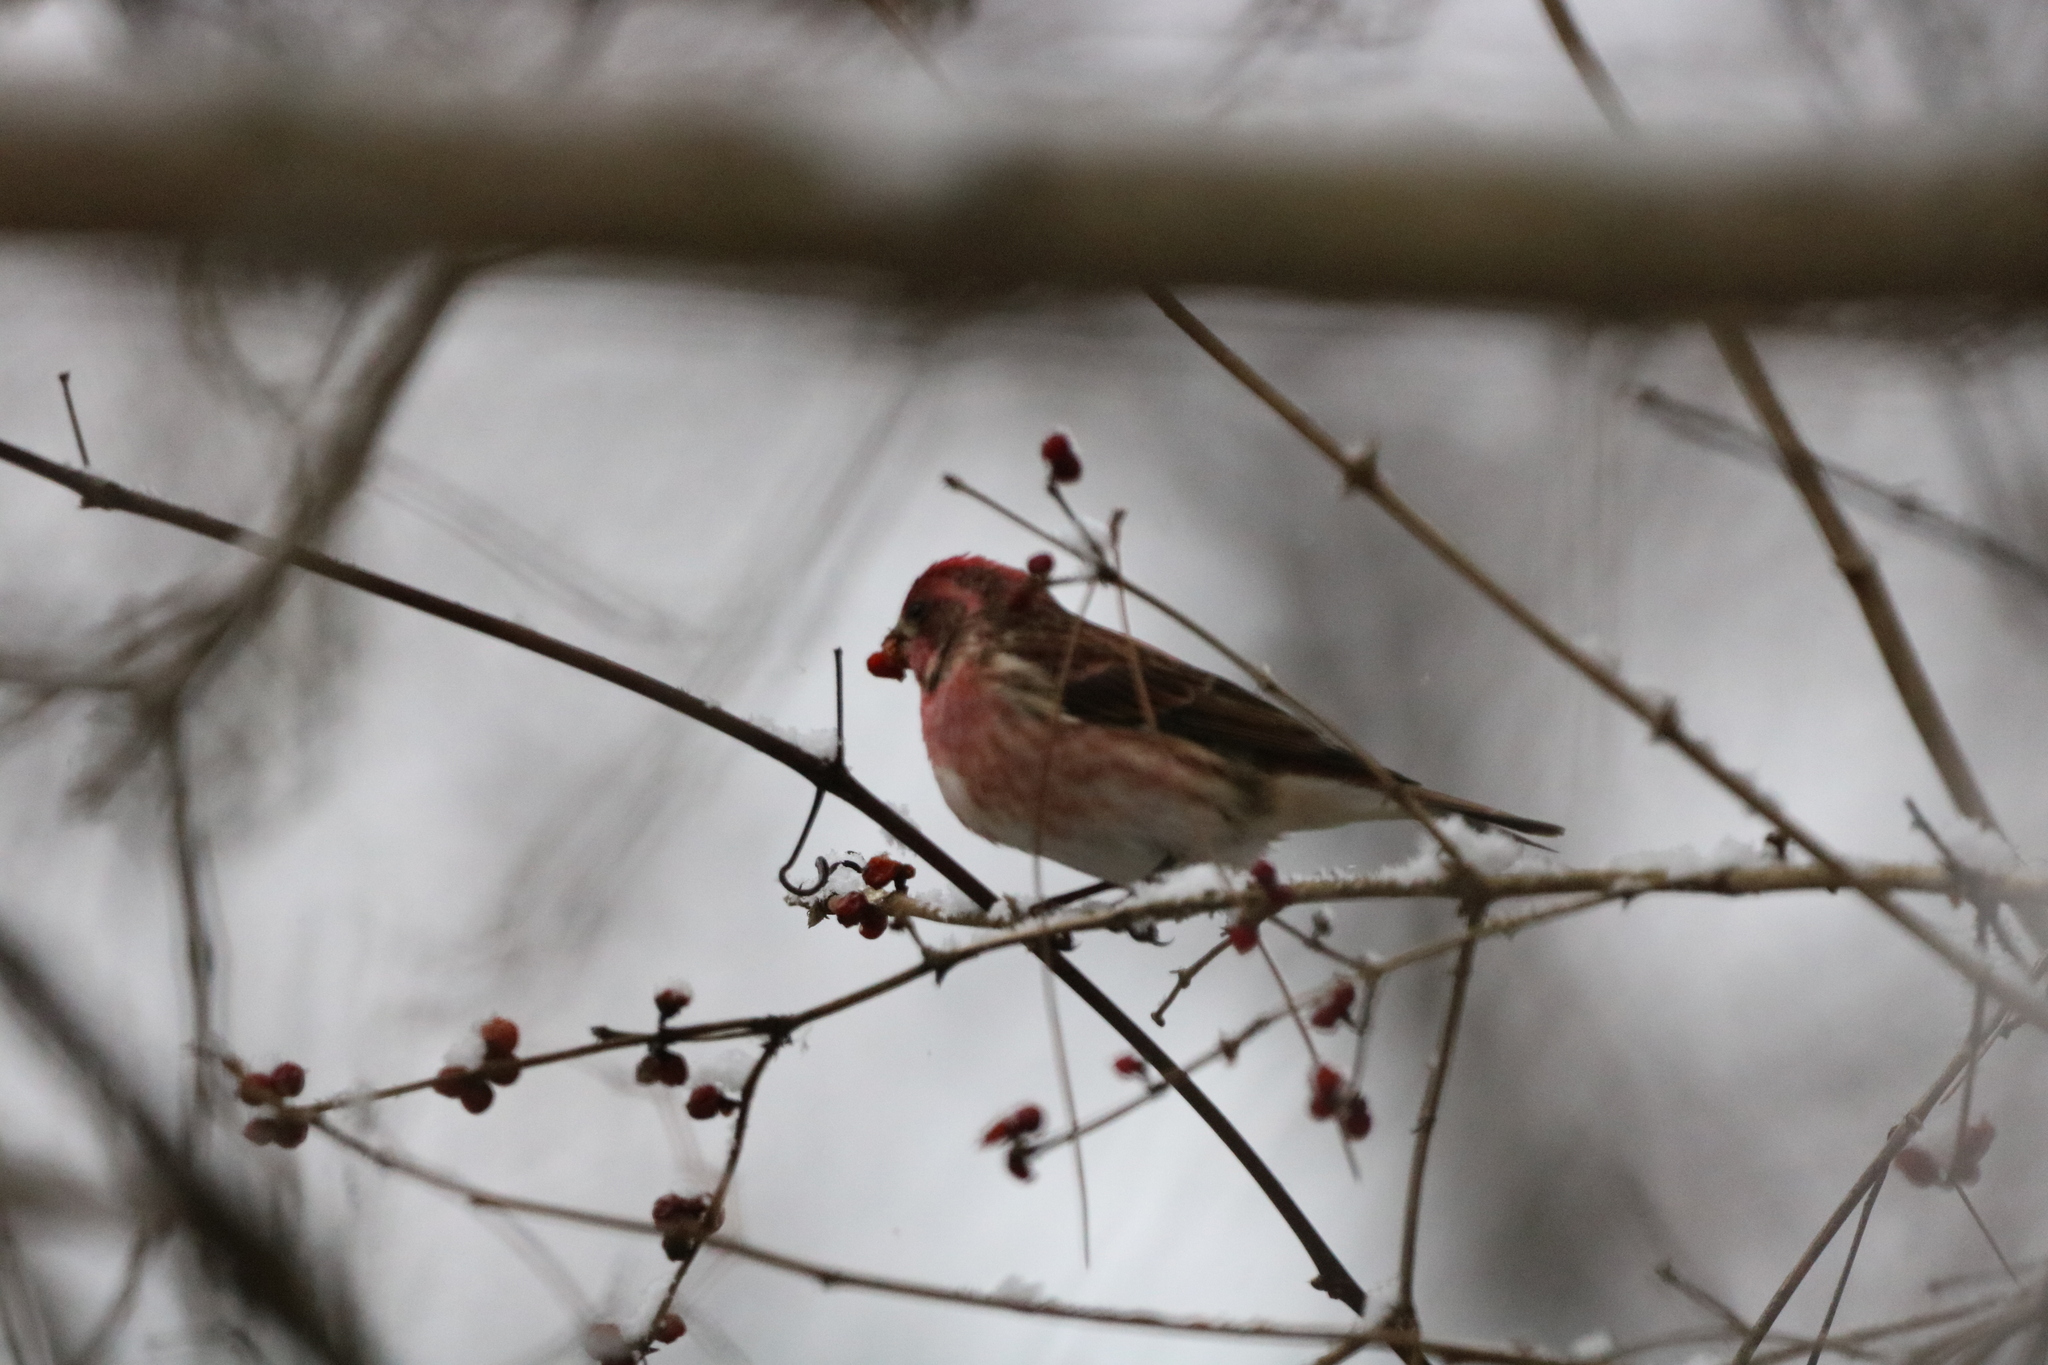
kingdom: Animalia
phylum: Chordata
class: Aves
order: Passeriformes
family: Fringillidae
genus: Haemorhous
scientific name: Haemorhous purpureus
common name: Purple finch
